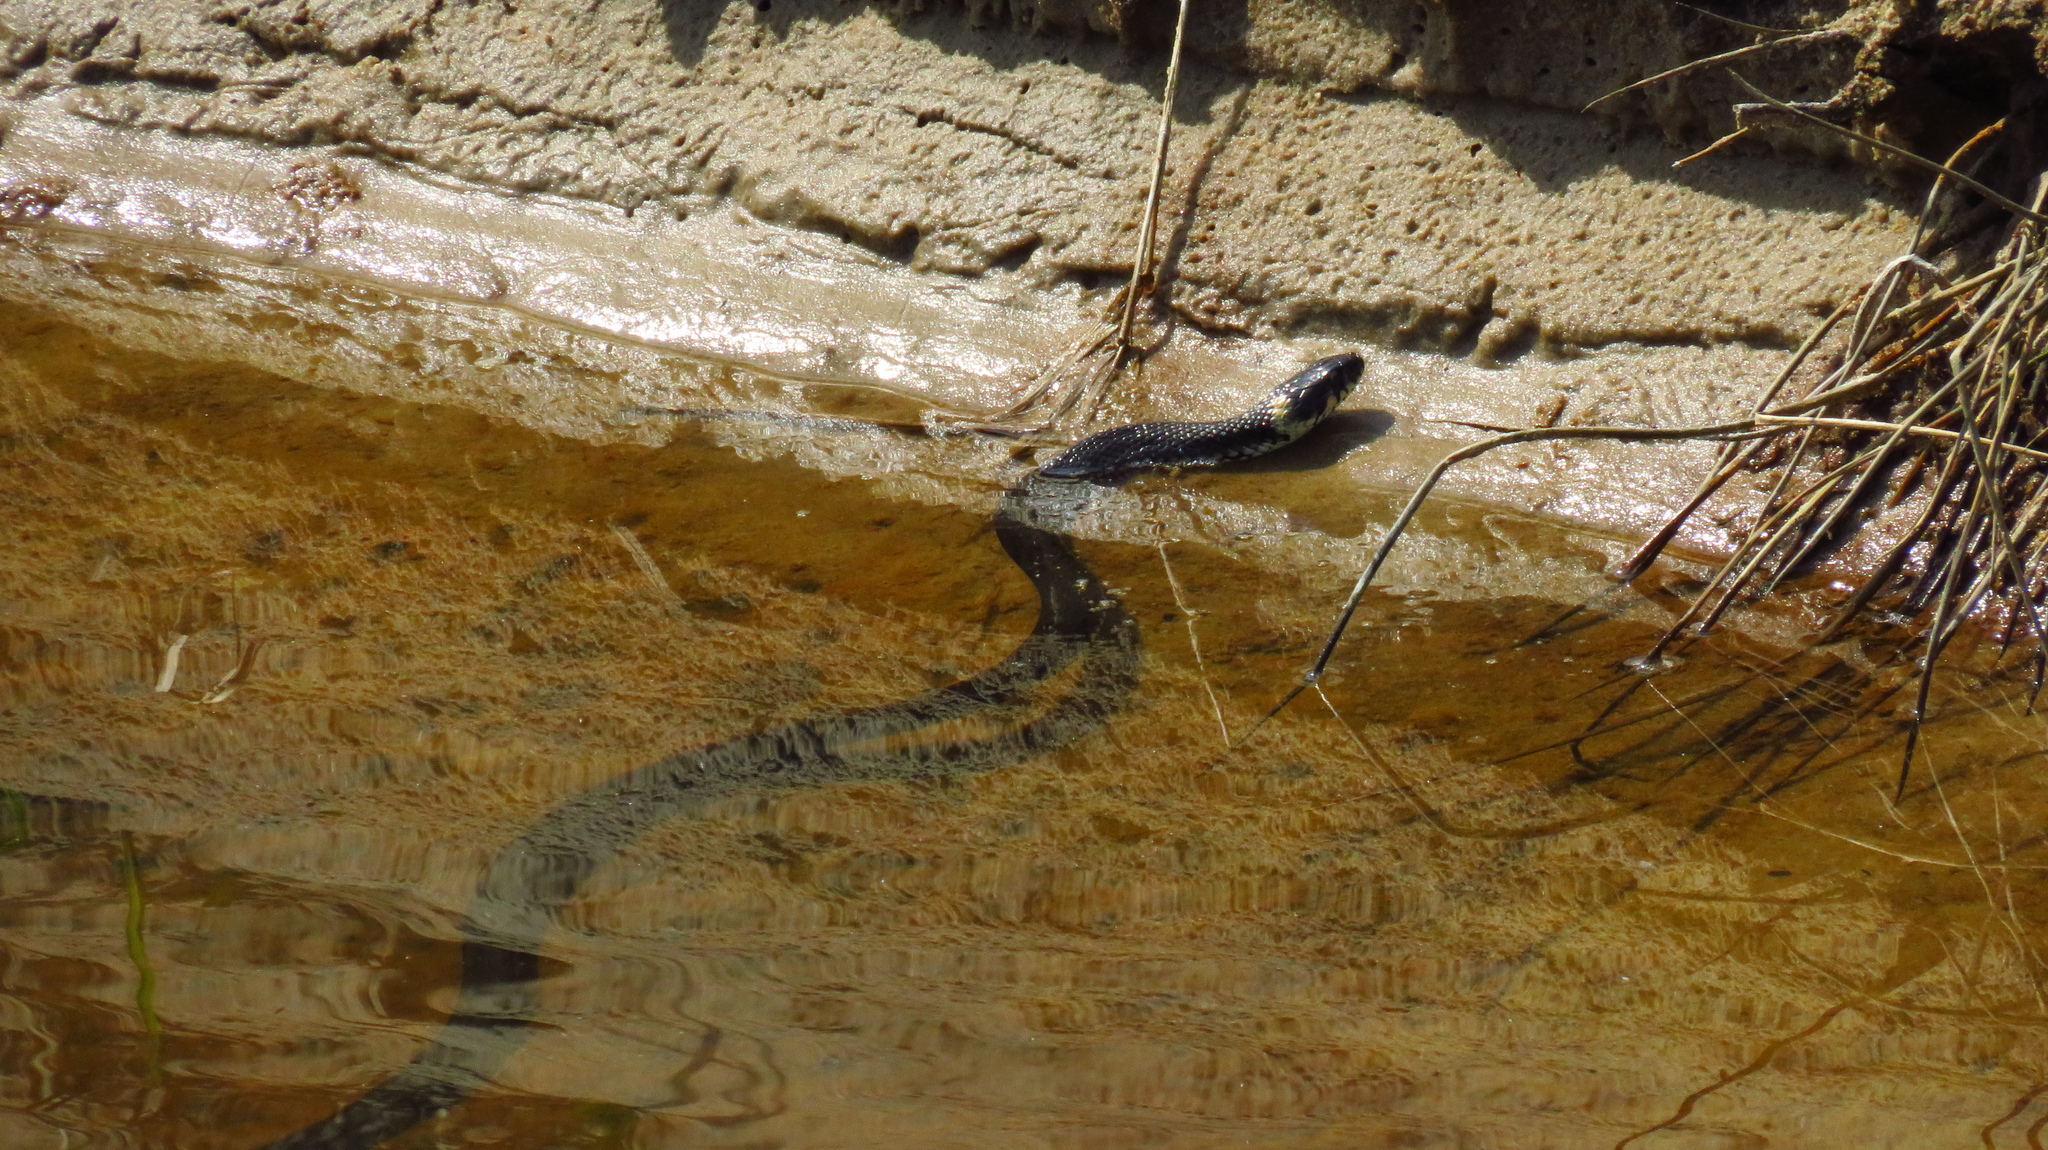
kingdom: Animalia
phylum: Chordata
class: Squamata
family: Colubridae
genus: Natrix
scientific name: Natrix natrix
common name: Grass snake
